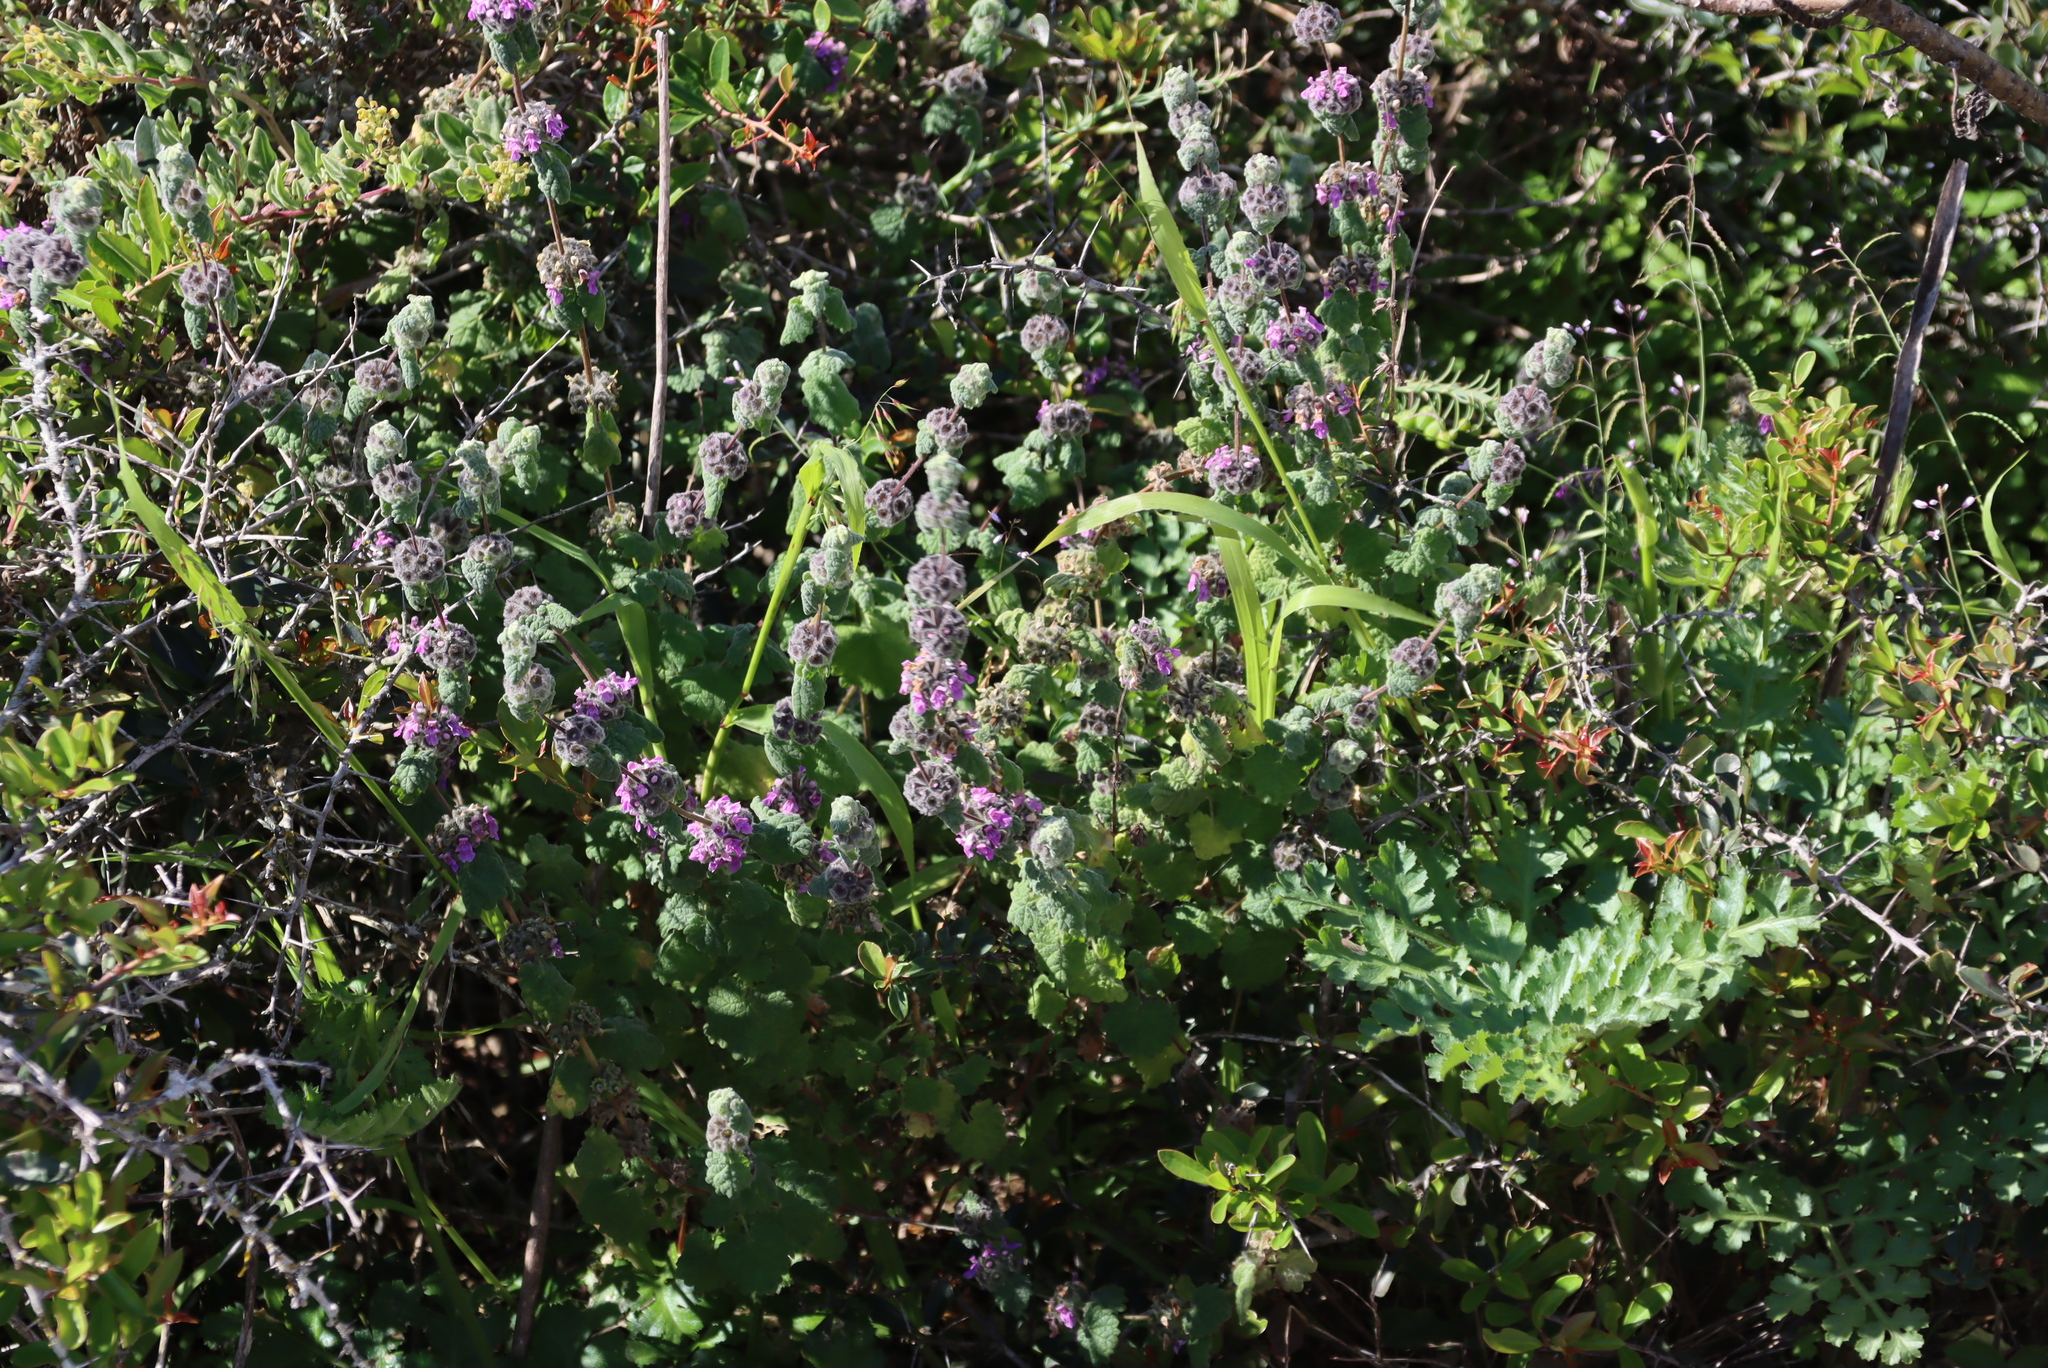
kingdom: Plantae
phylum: Tracheophyta
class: Magnoliopsida
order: Lamiales
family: Lamiaceae
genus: Pseudodictamnus
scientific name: Pseudodictamnus africanus
